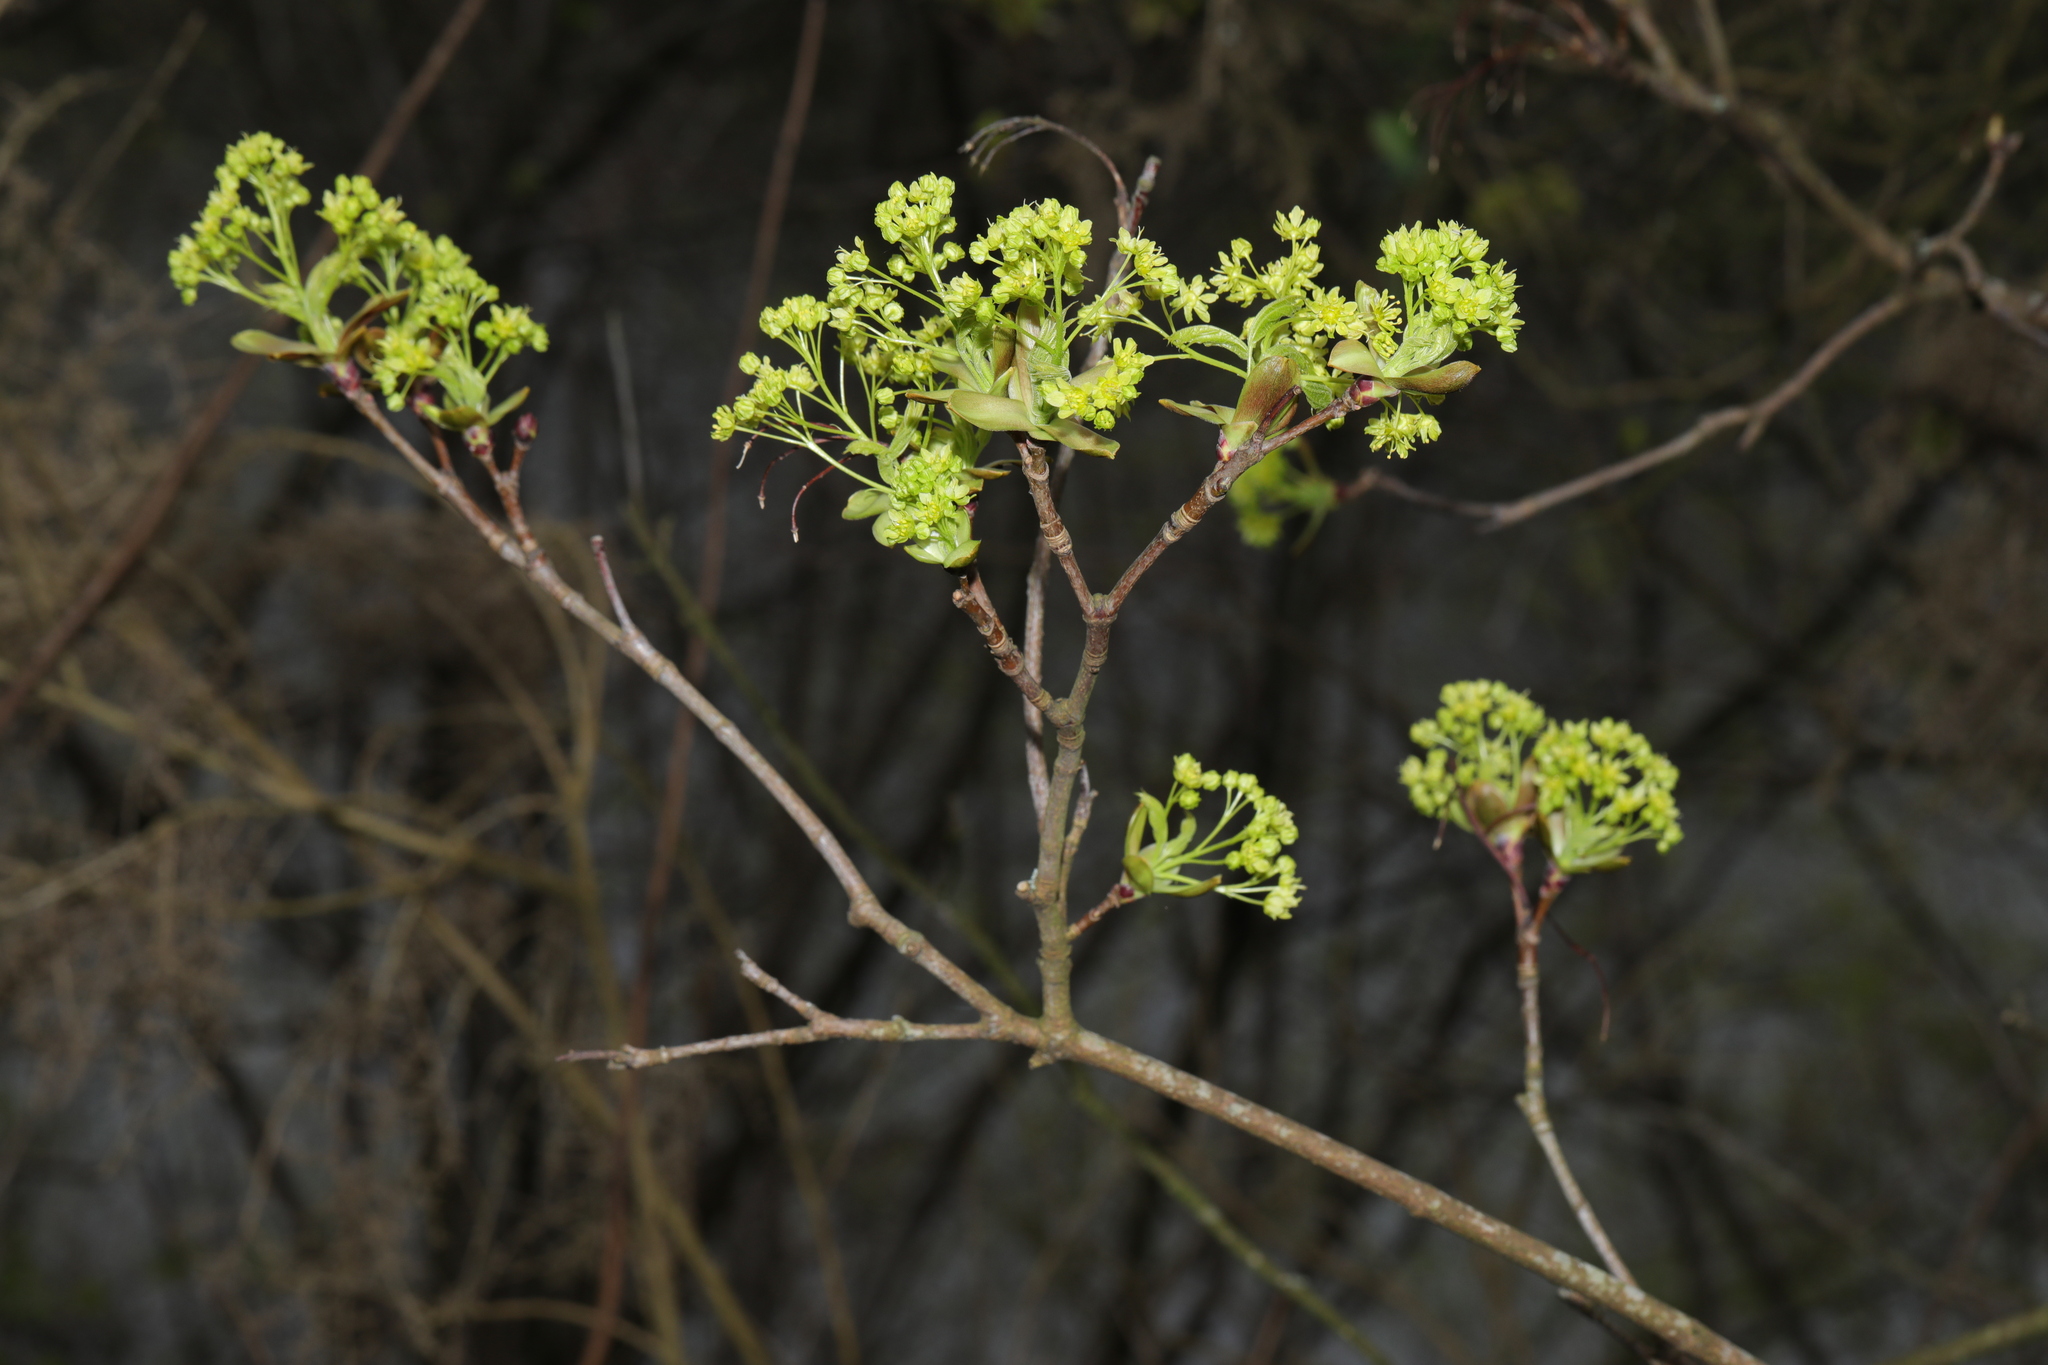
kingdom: Plantae
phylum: Tracheophyta
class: Magnoliopsida
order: Sapindales
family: Sapindaceae
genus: Acer
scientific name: Acer platanoides
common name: Norway maple
